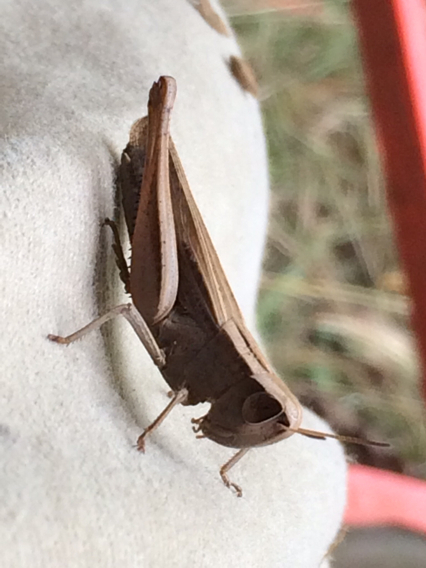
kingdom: Animalia
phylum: Arthropoda
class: Insecta
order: Orthoptera
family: Acrididae
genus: Amblytropidia
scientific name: Amblytropidia mysteca
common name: Brown winter grasshopper
